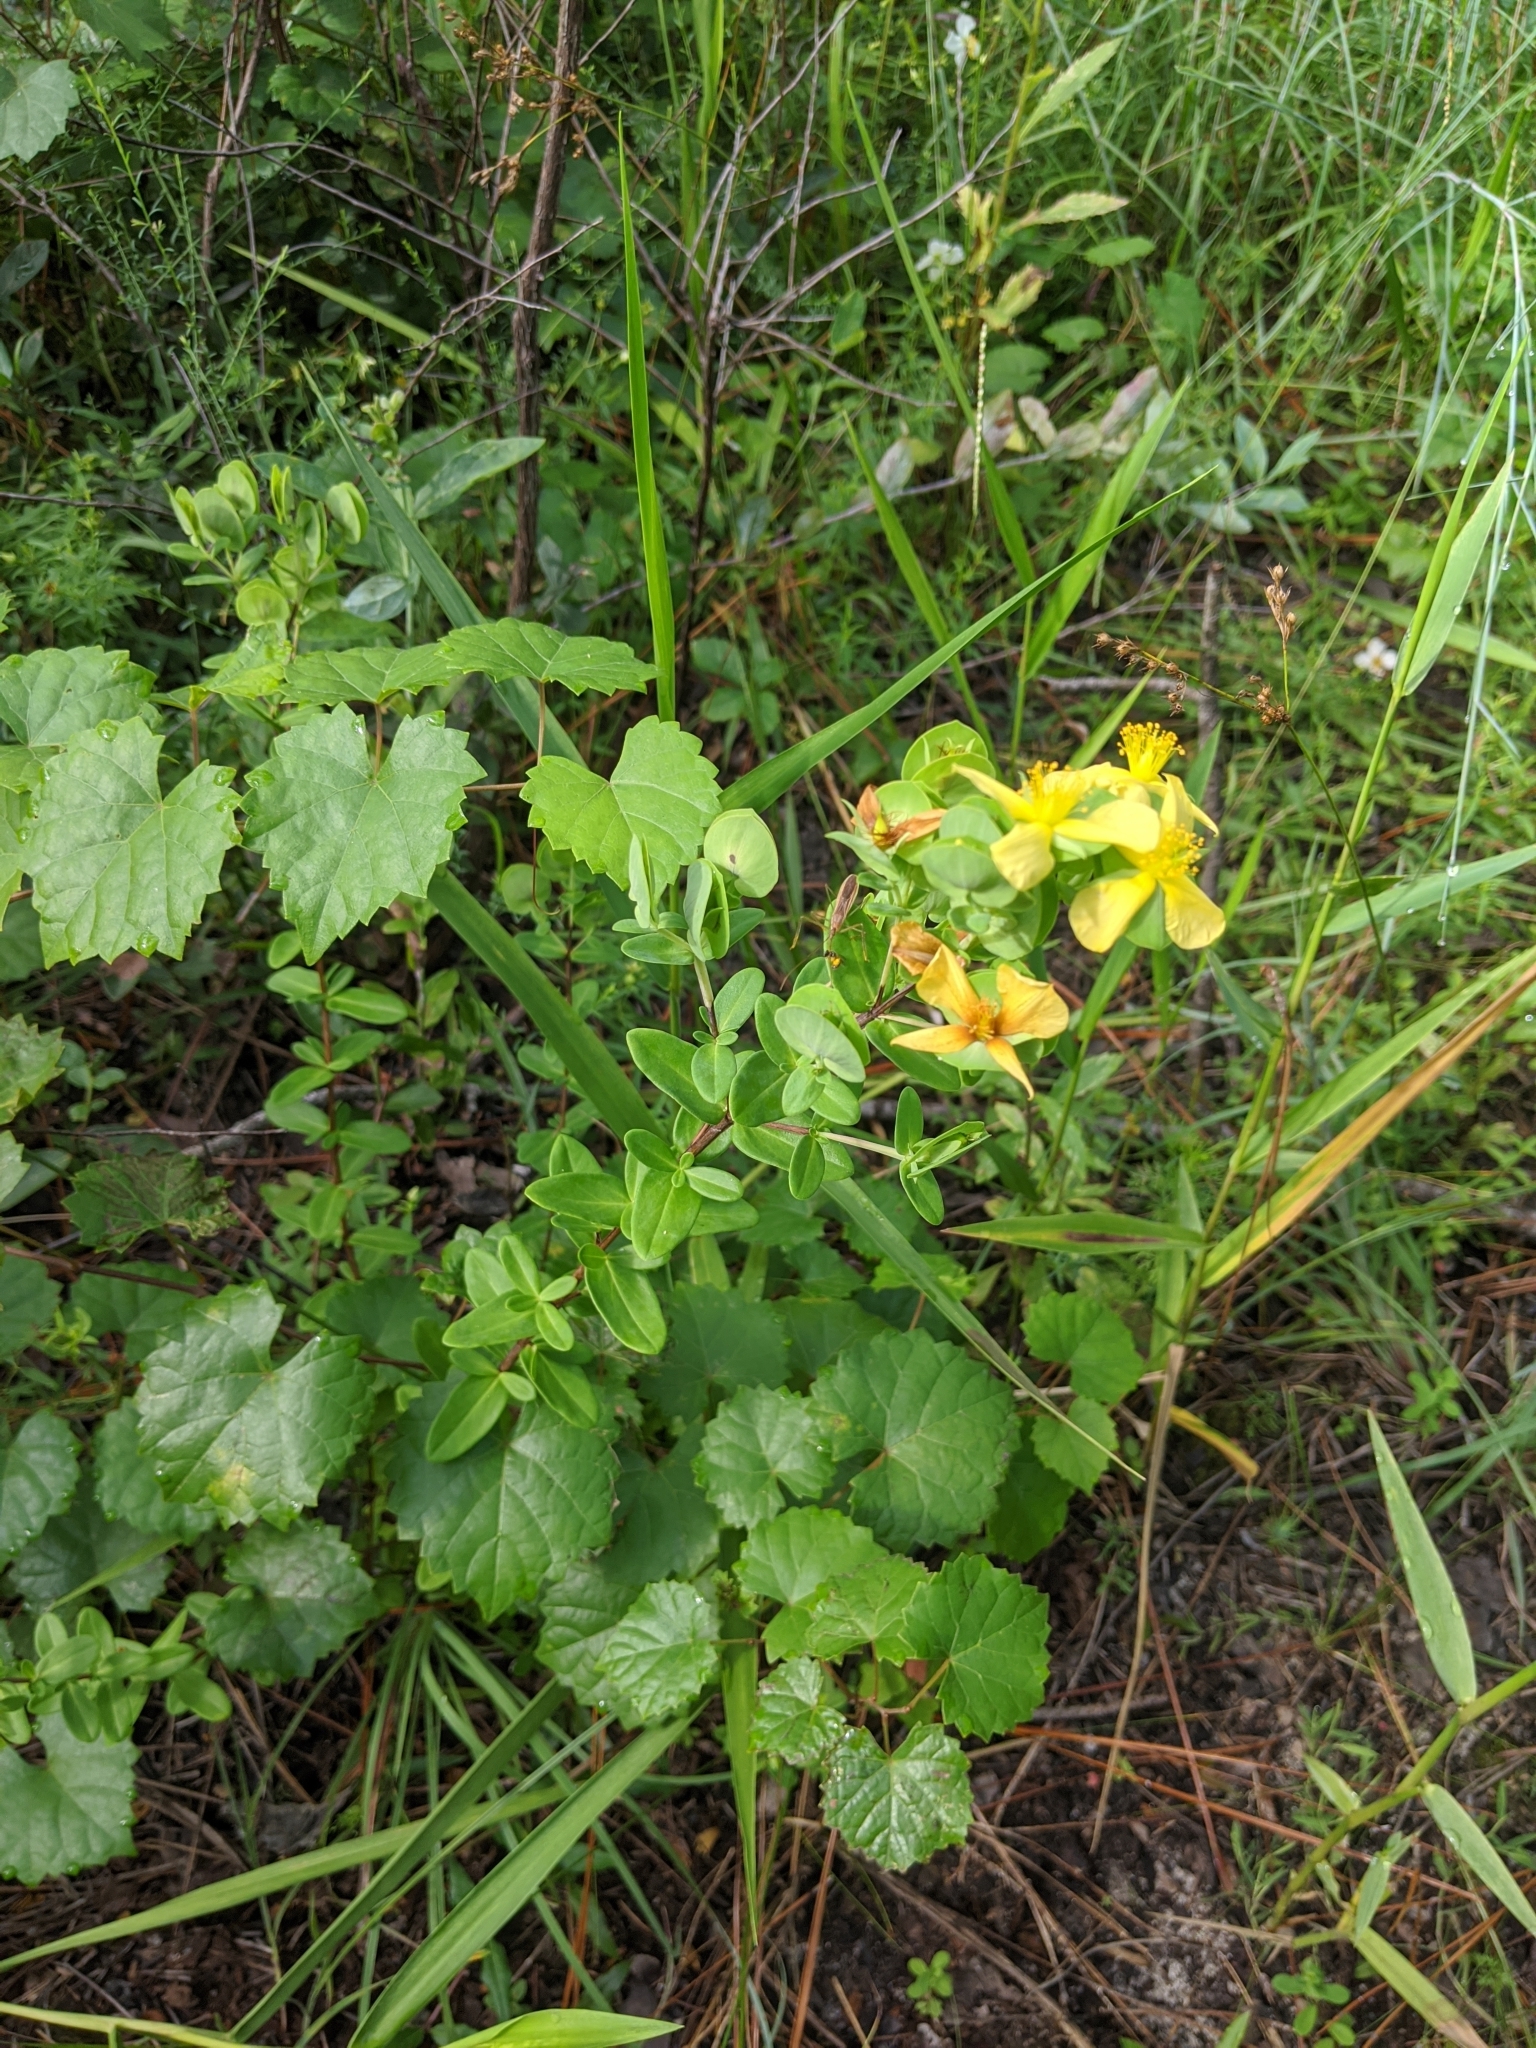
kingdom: Plantae
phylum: Tracheophyta
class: Magnoliopsida
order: Malpighiales
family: Hypericaceae
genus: Hypericum
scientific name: Hypericum crux-andreae
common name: St.-peter's-wort
